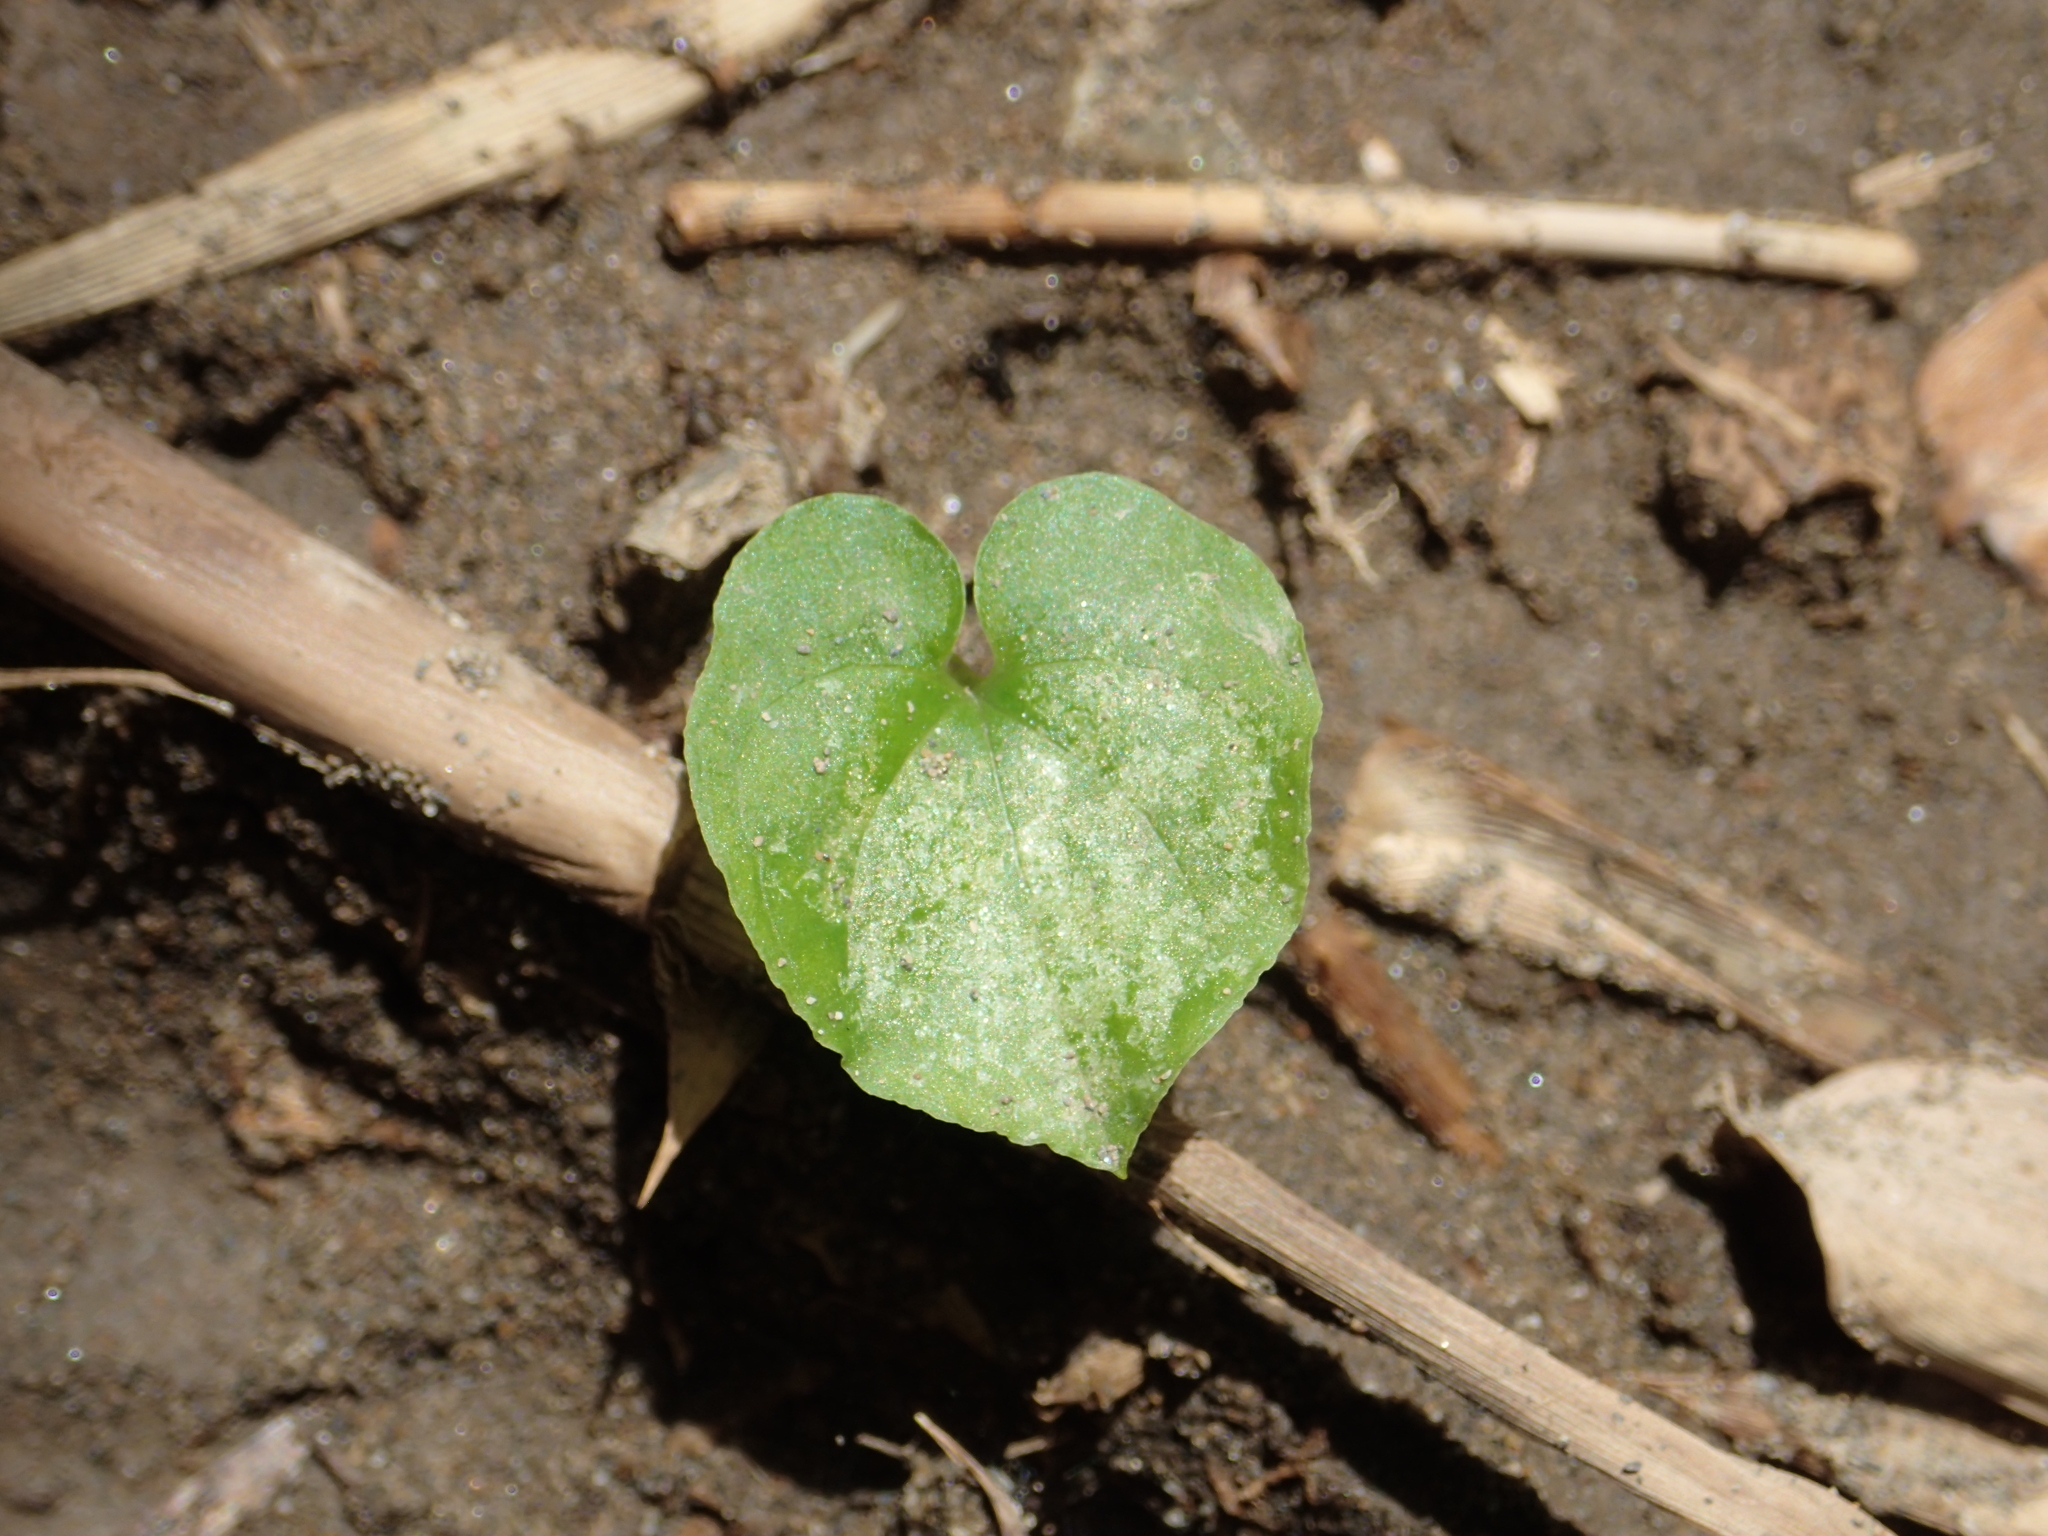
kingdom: Plantae
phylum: Tracheophyta
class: Liliopsida
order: Alismatales
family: Araceae
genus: Typhonium
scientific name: Typhonium blumei
